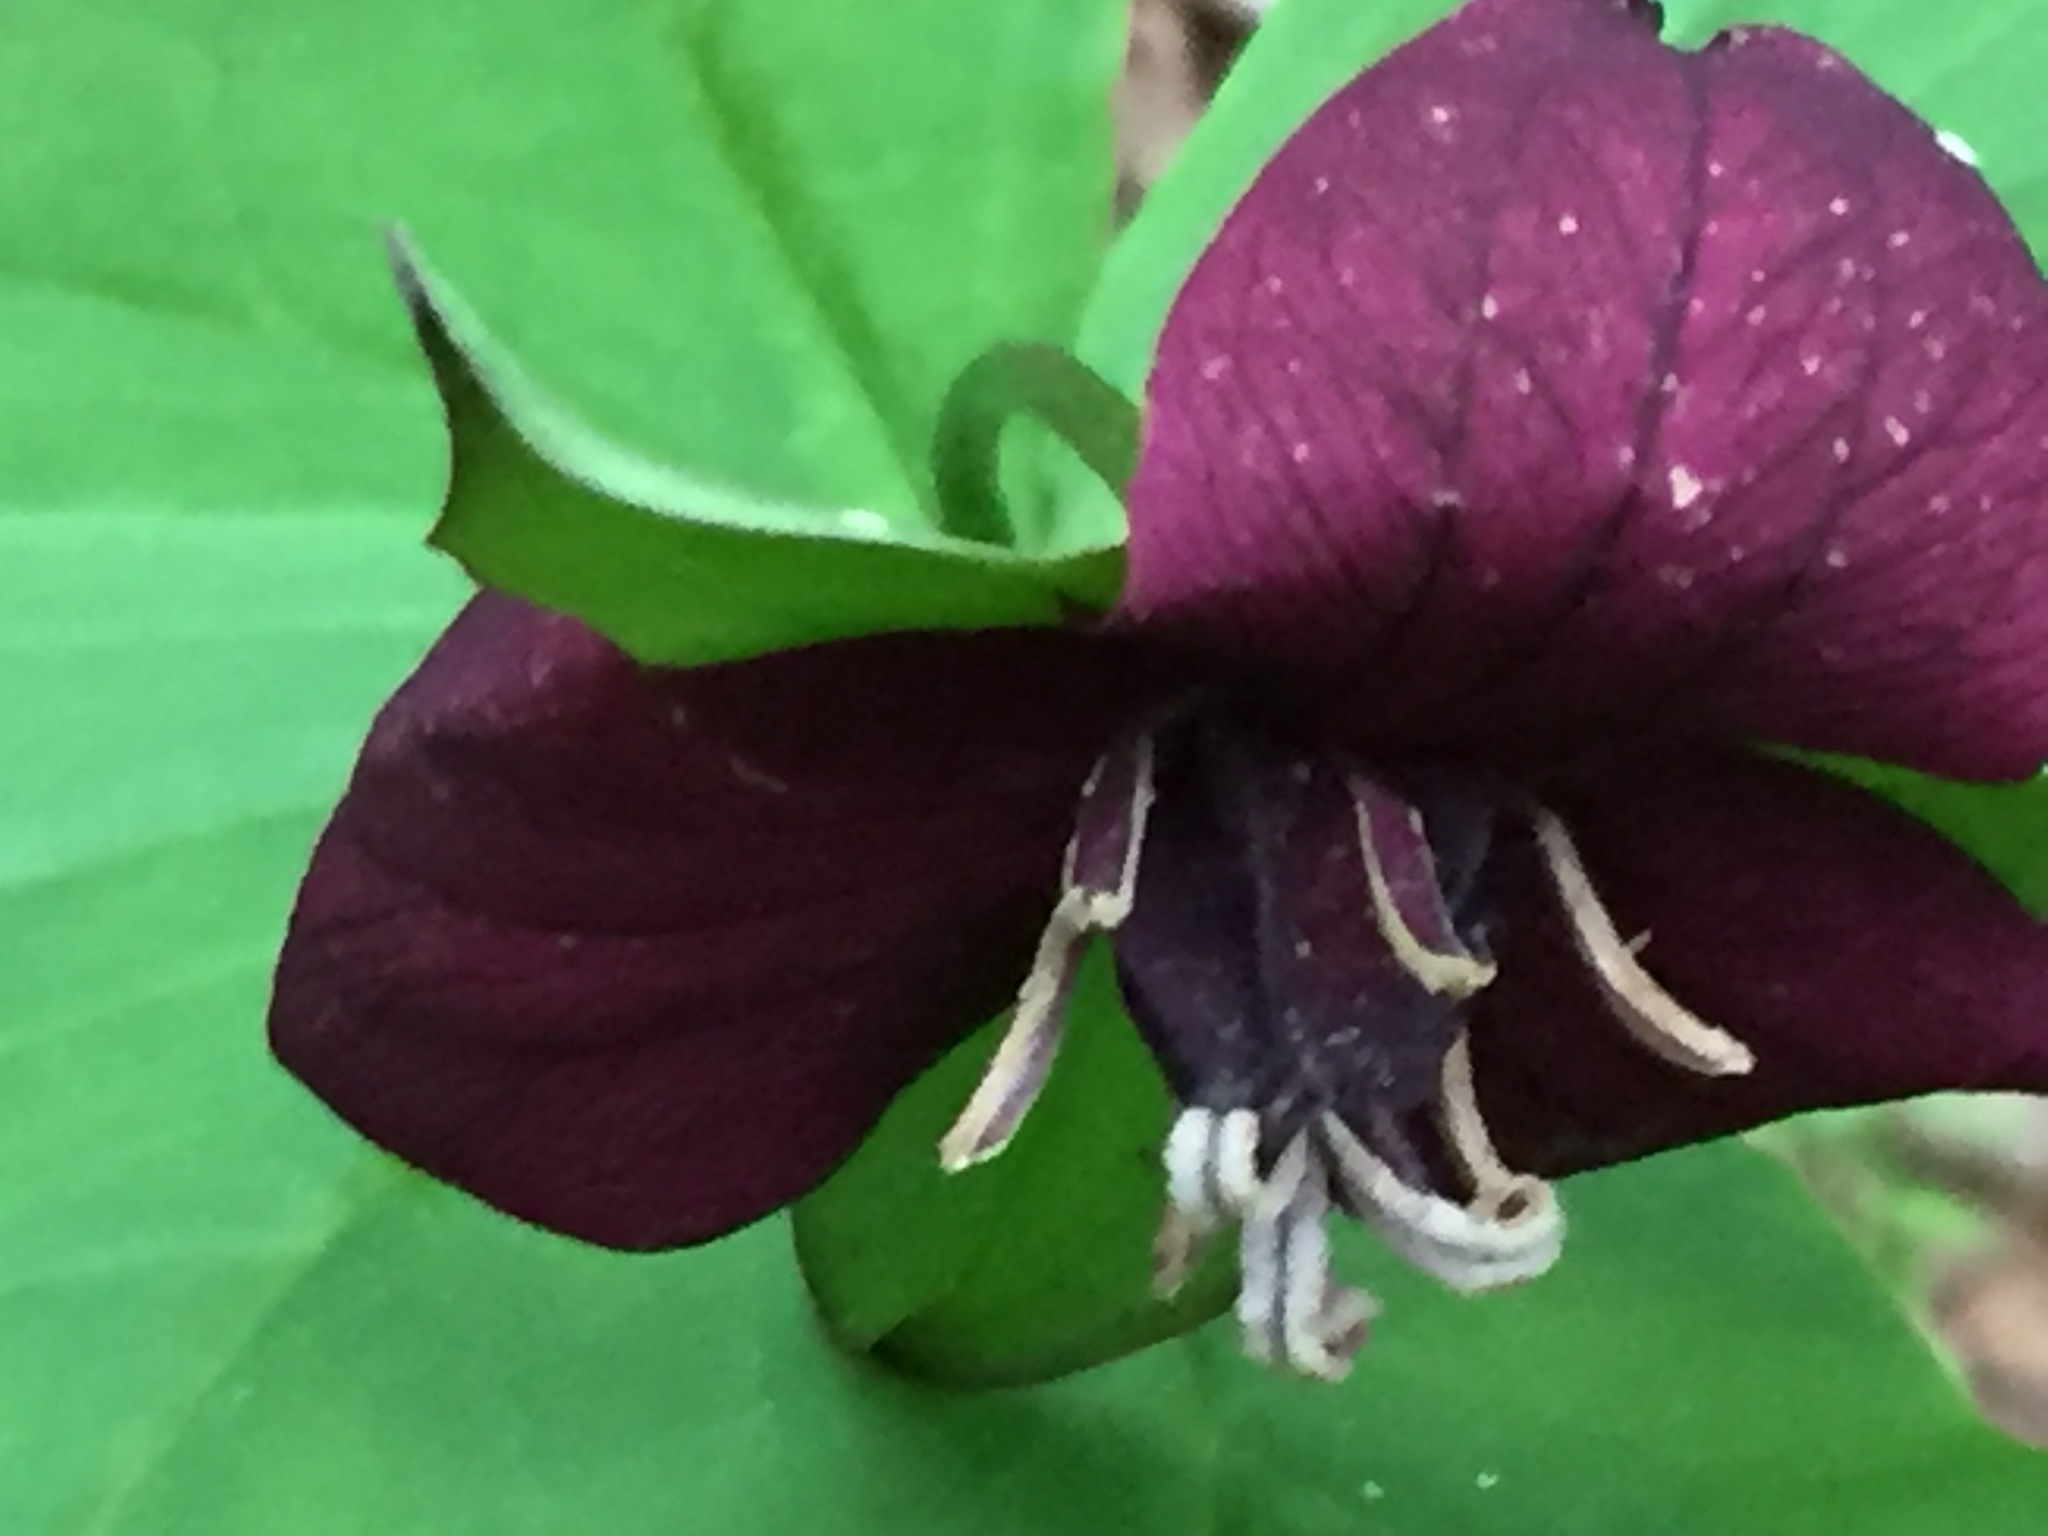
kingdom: Plantae
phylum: Tracheophyta
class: Liliopsida
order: Liliales
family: Melanthiaceae
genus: Trillium
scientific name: Trillium erectum
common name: Purple trillium
